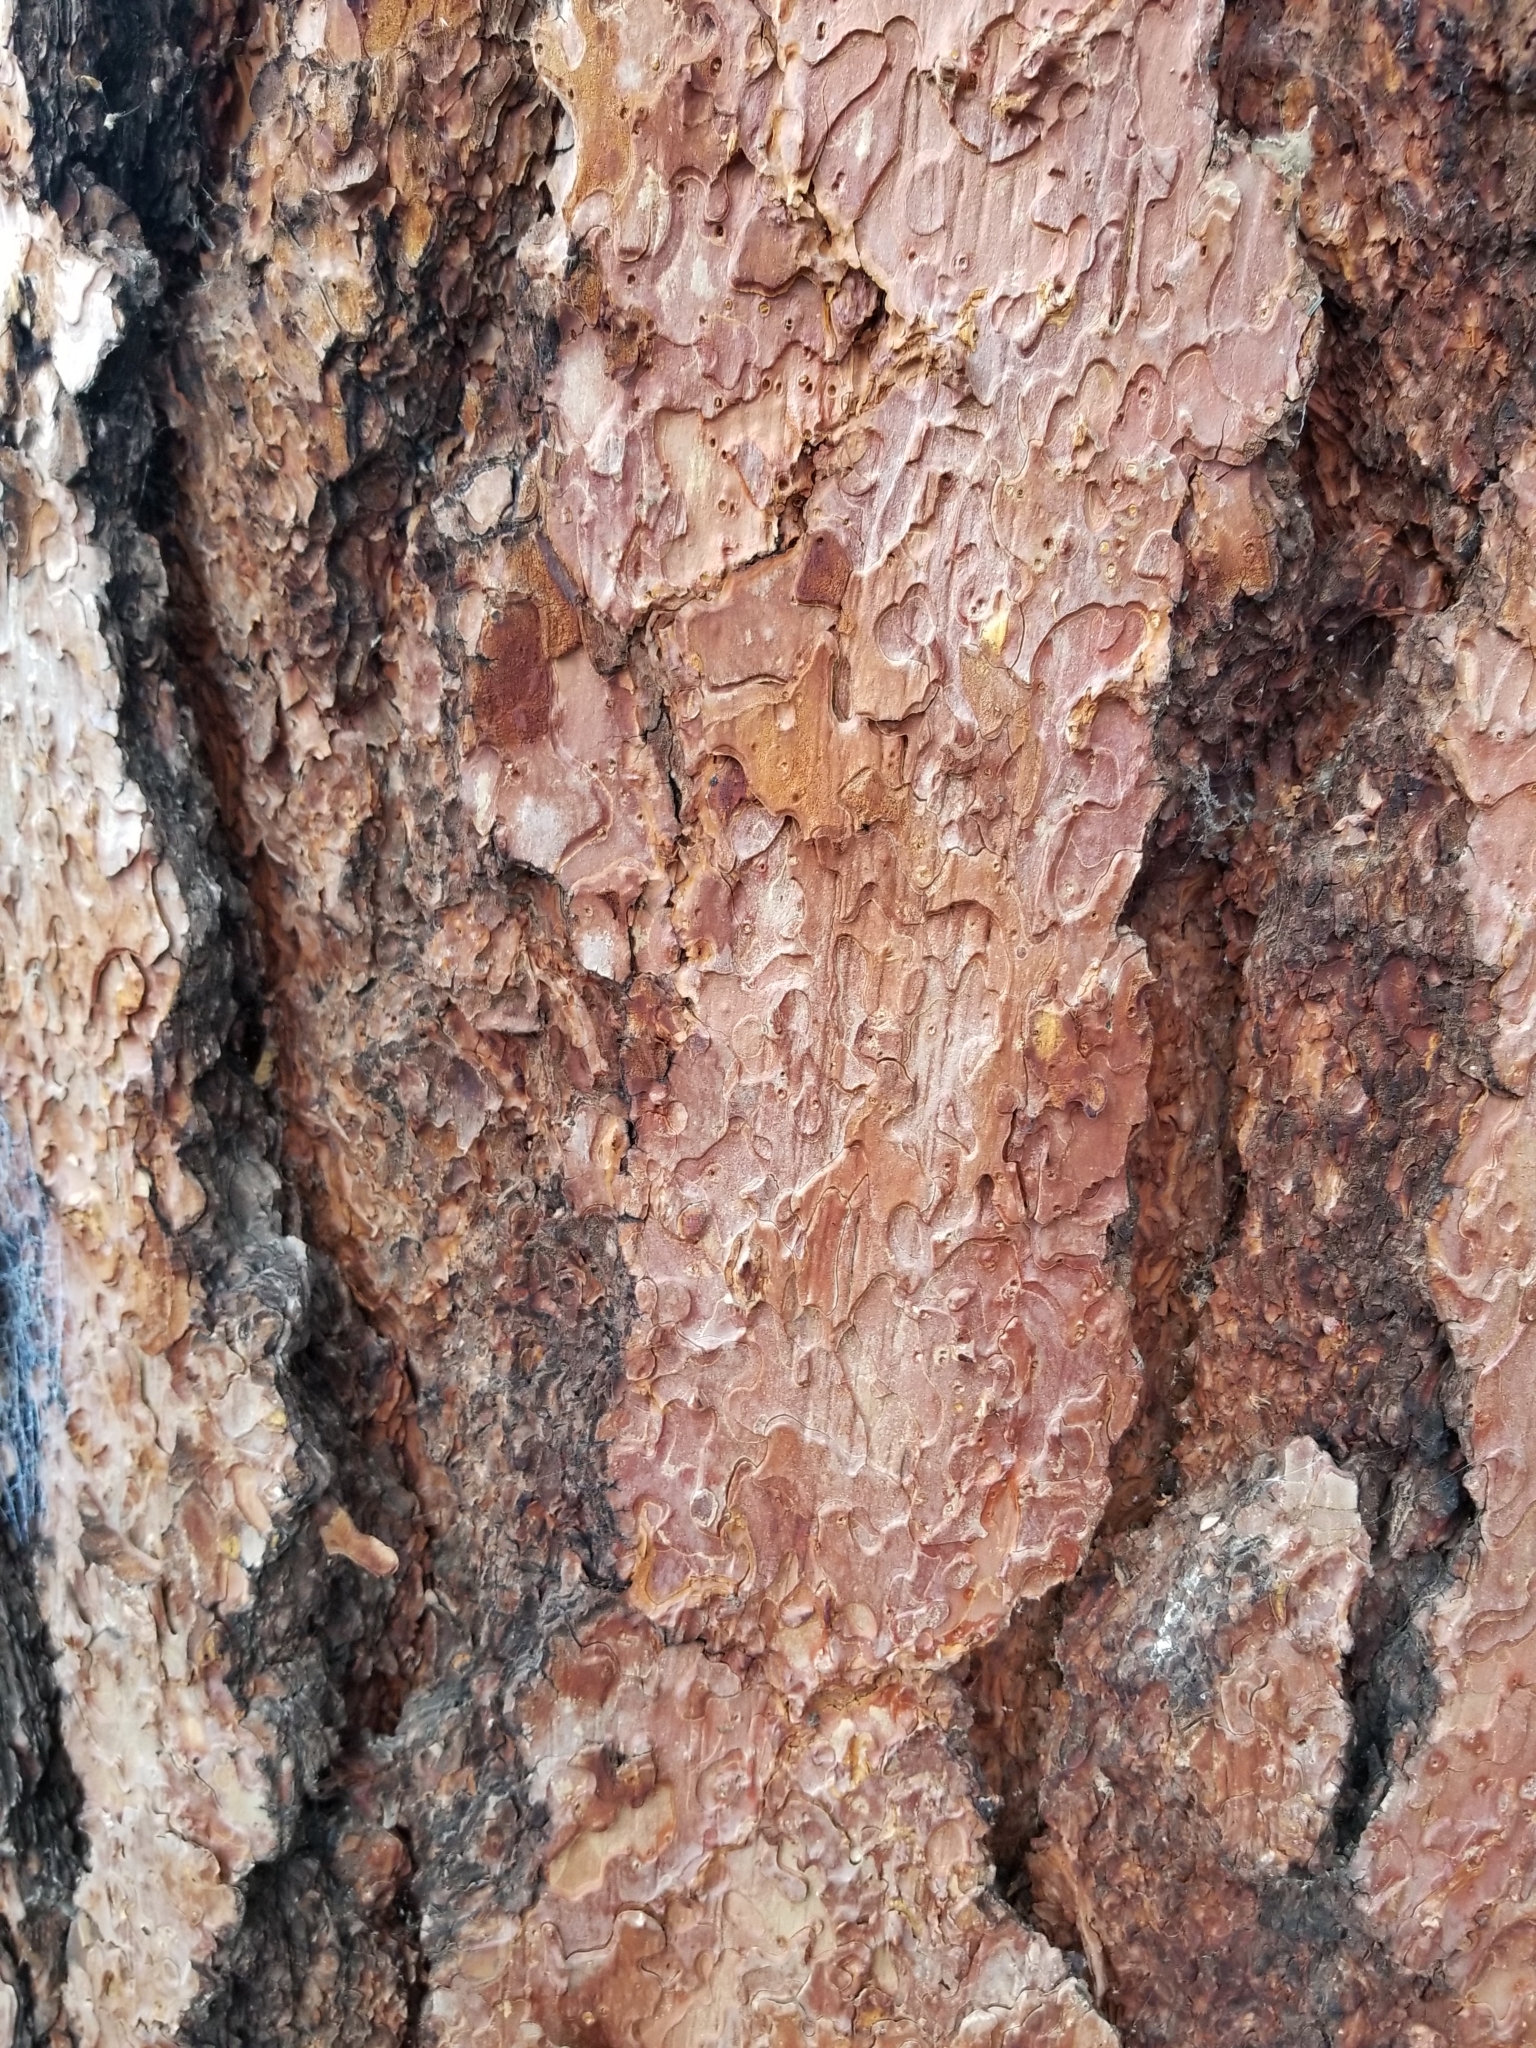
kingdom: Plantae
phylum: Tracheophyta
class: Pinopsida
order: Pinales
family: Pinaceae
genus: Pinus
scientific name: Pinus ponderosa
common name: Western yellow-pine
